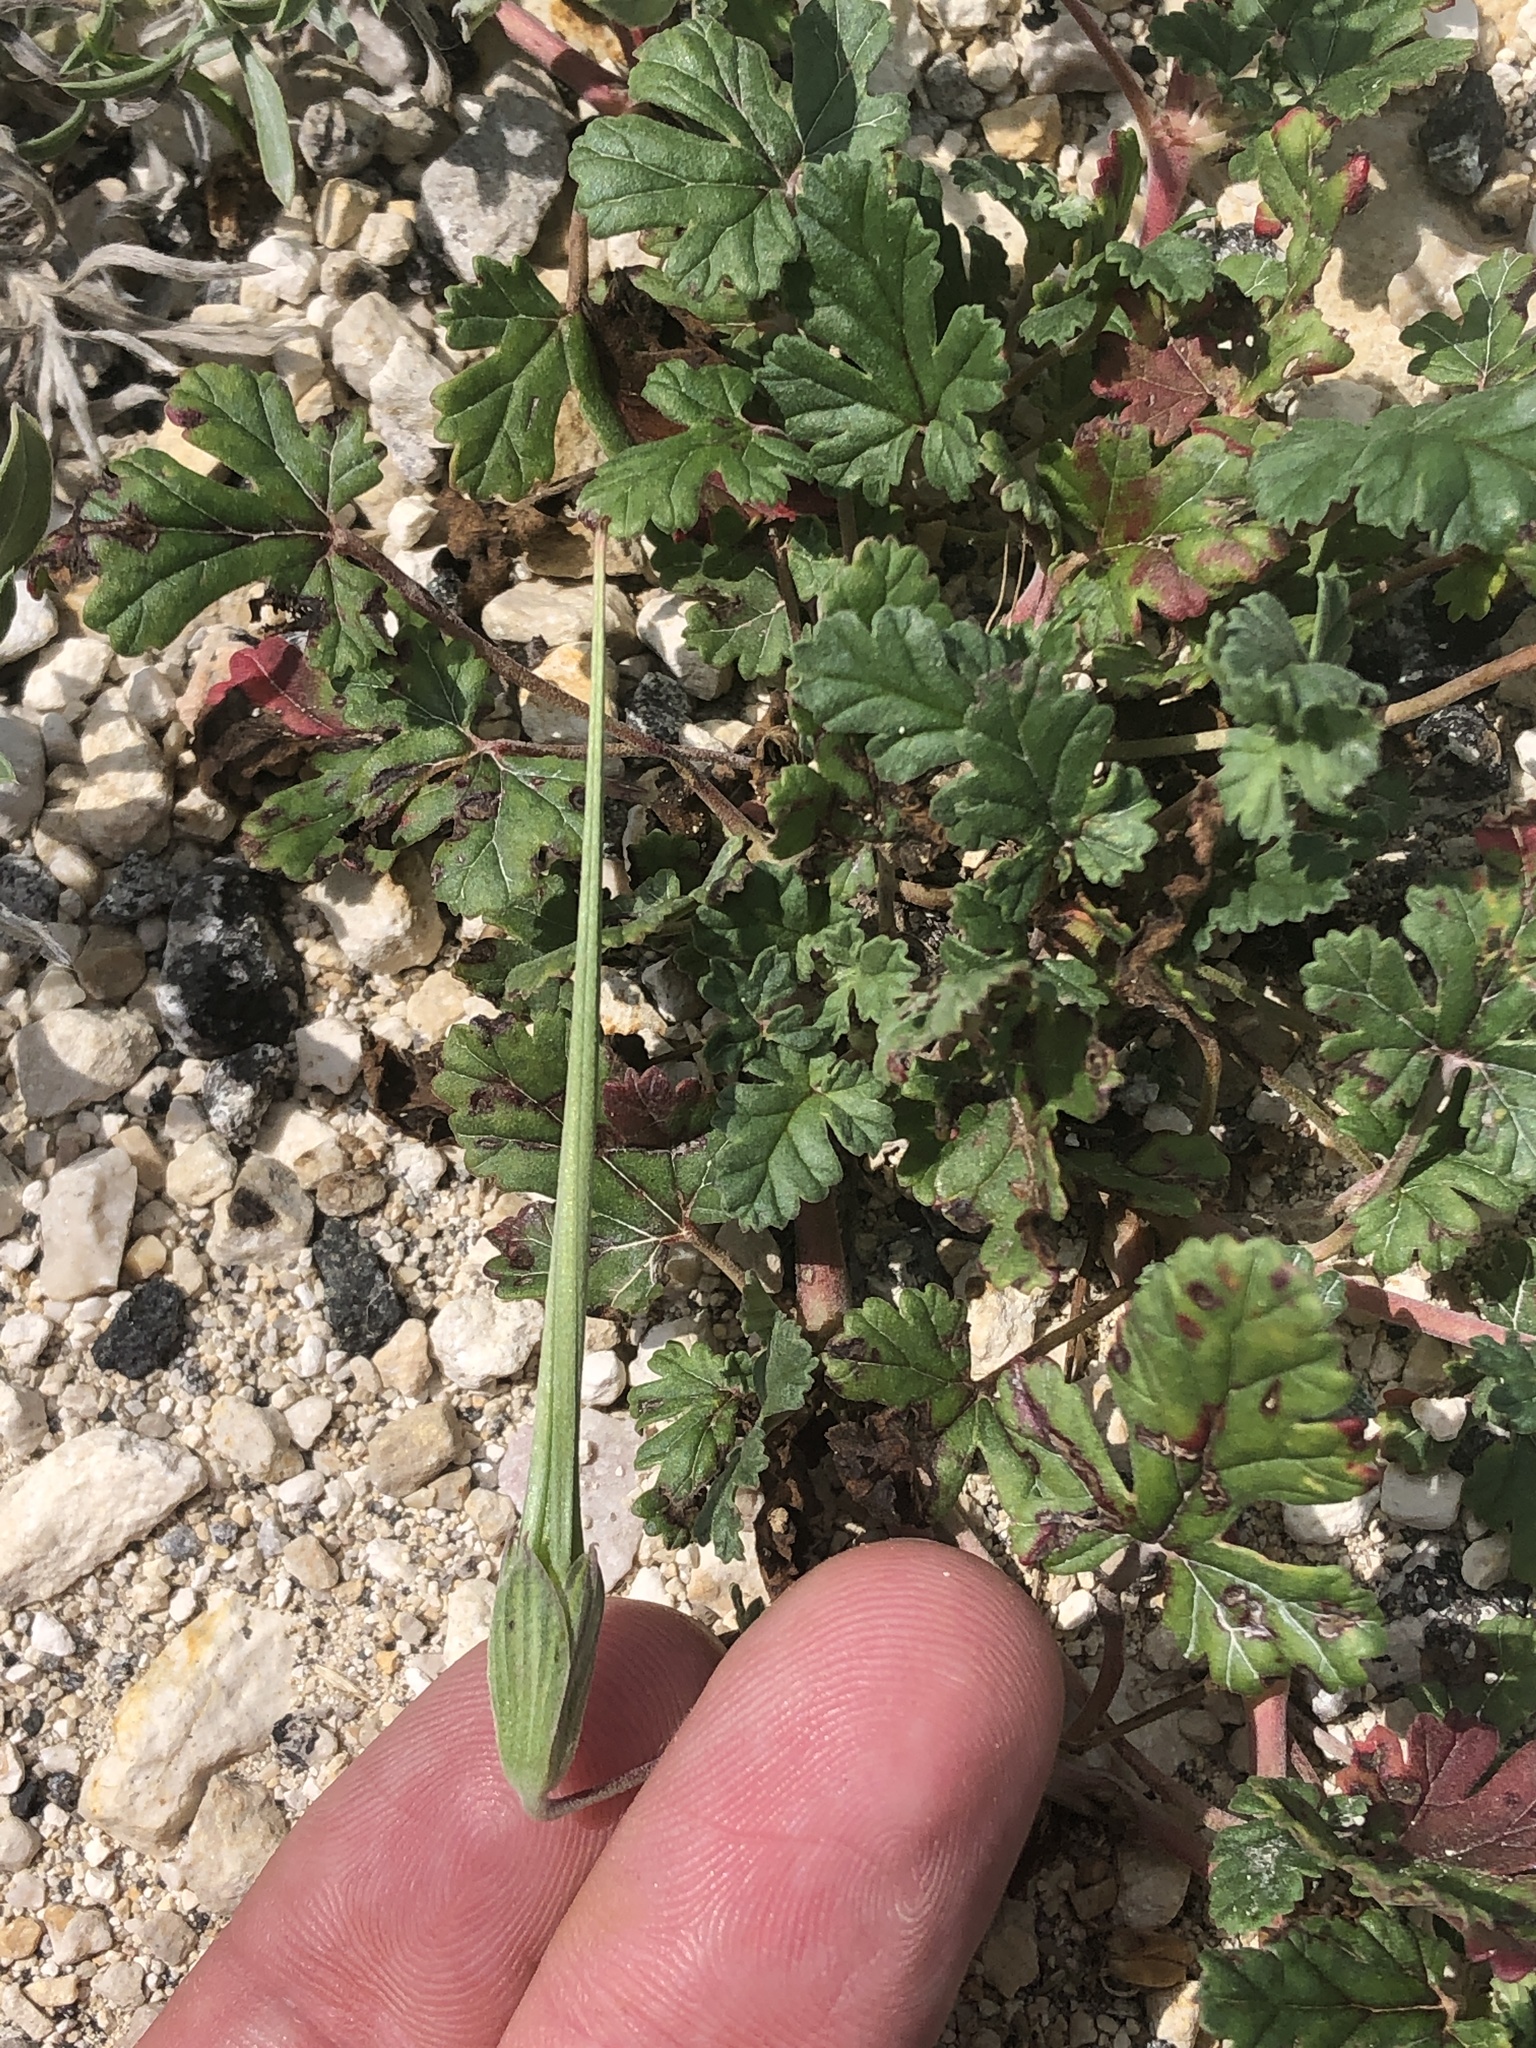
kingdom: Plantae
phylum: Tracheophyta
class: Magnoliopsida
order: Geraniales
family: Geraniaceae
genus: Erodium
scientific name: Erodium texanum
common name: Texas stork's-bill
